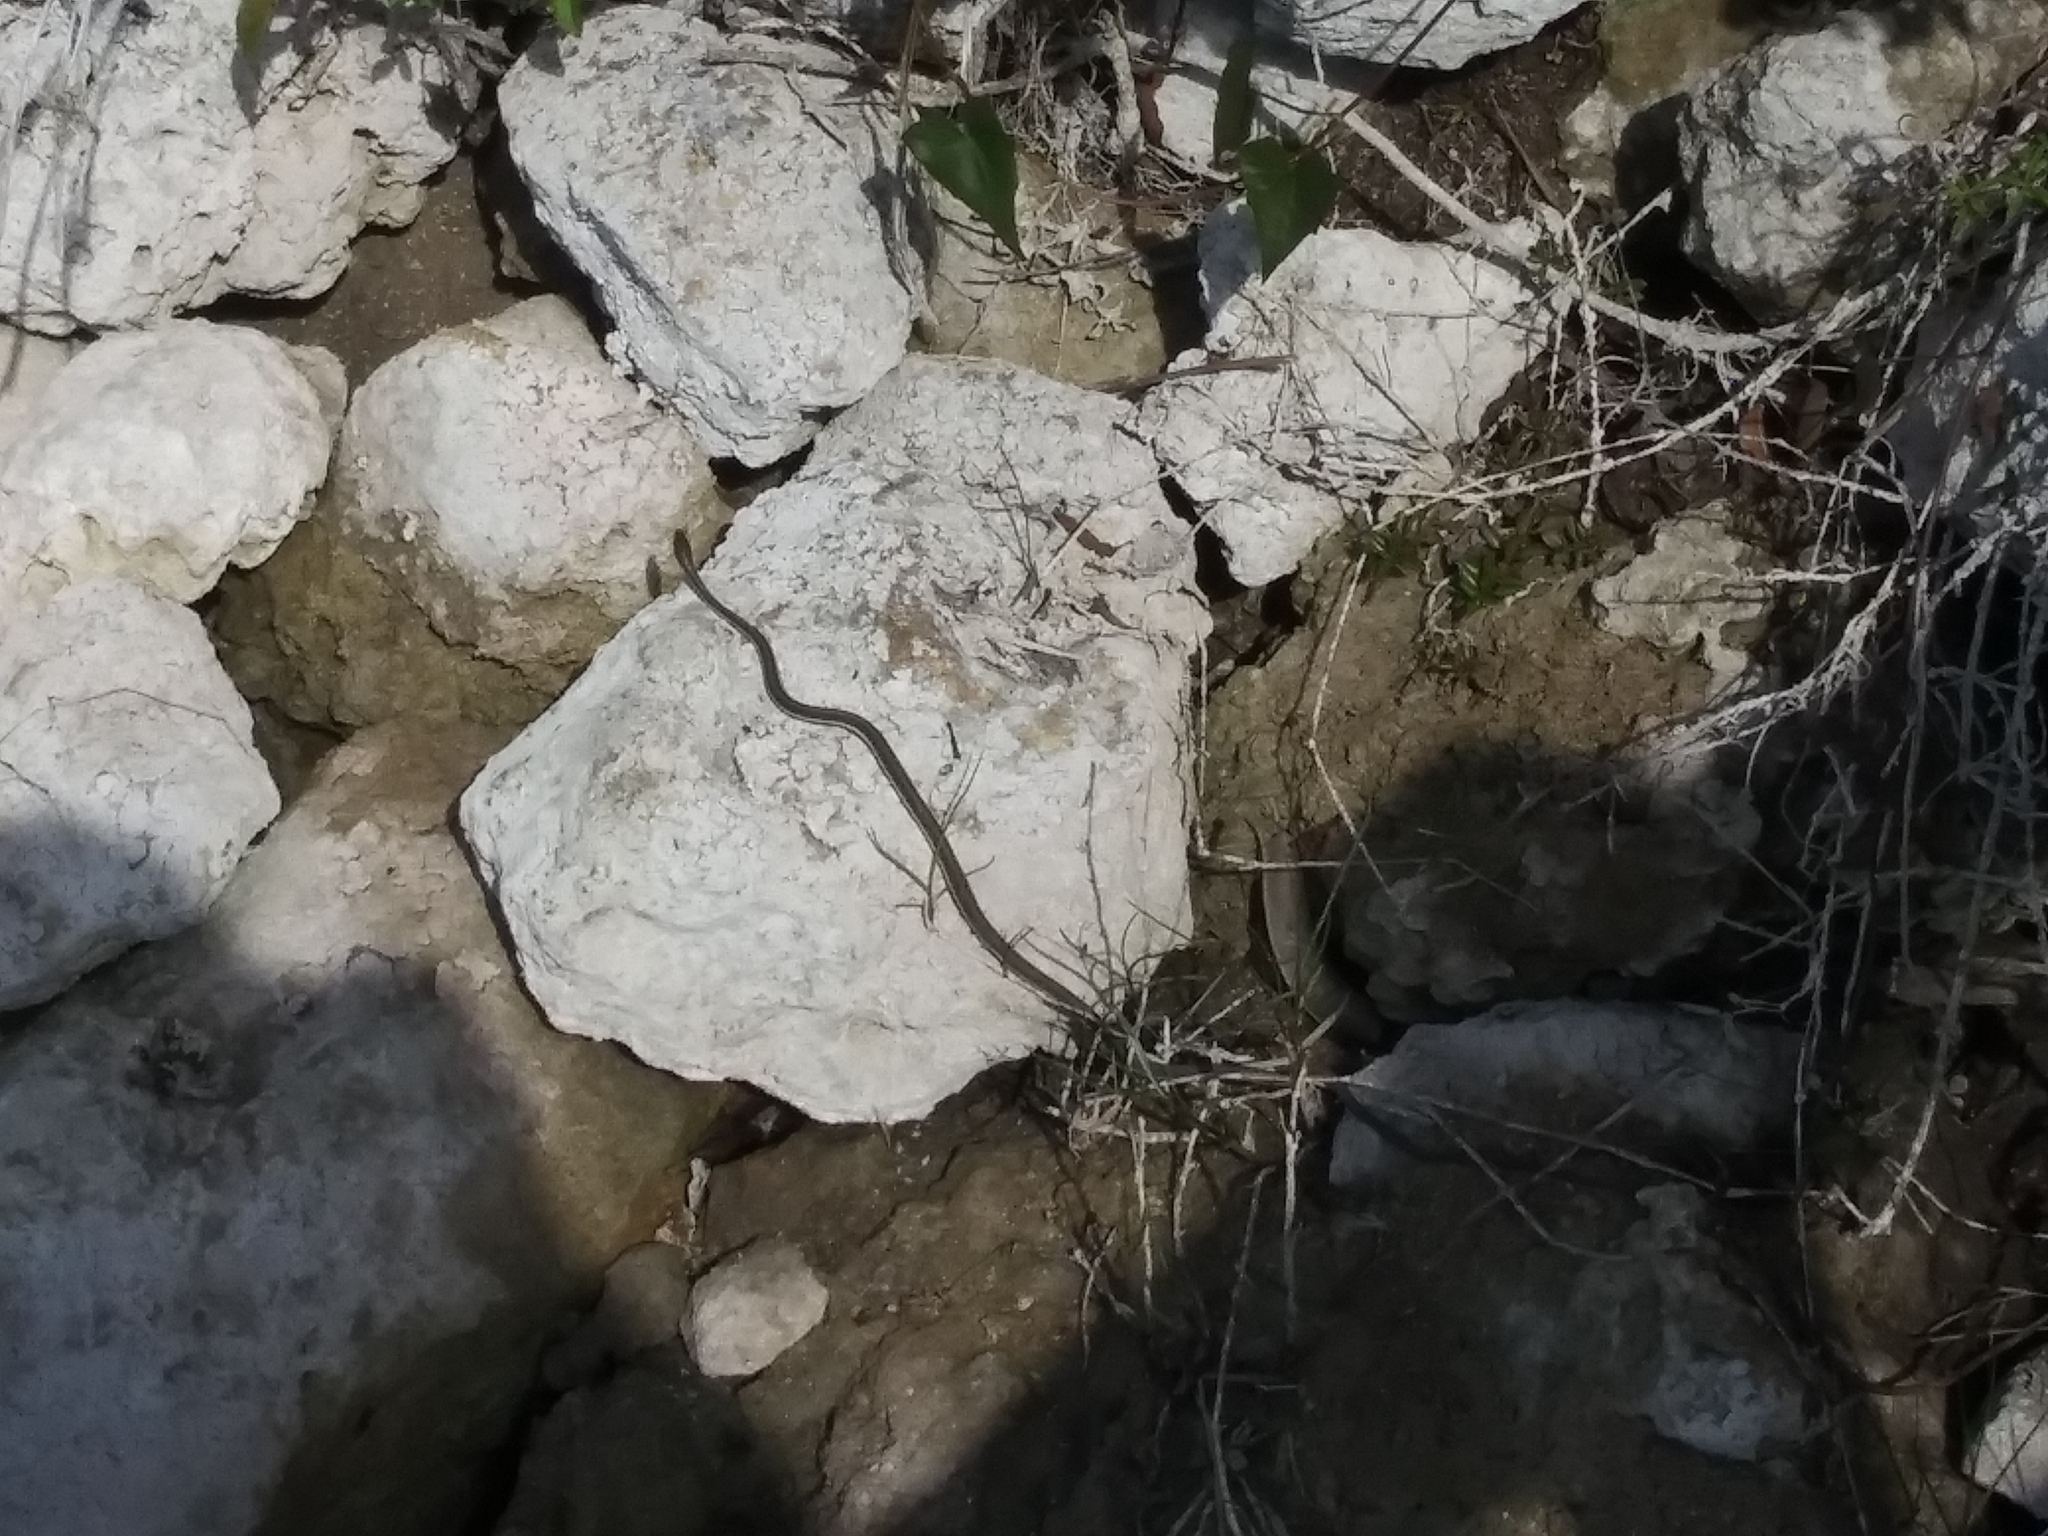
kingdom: Animalia
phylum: Chordata
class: Squamata
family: Colubridae
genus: Thamnophis
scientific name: Thamnophis saurita
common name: Eastern ribbonsnake
